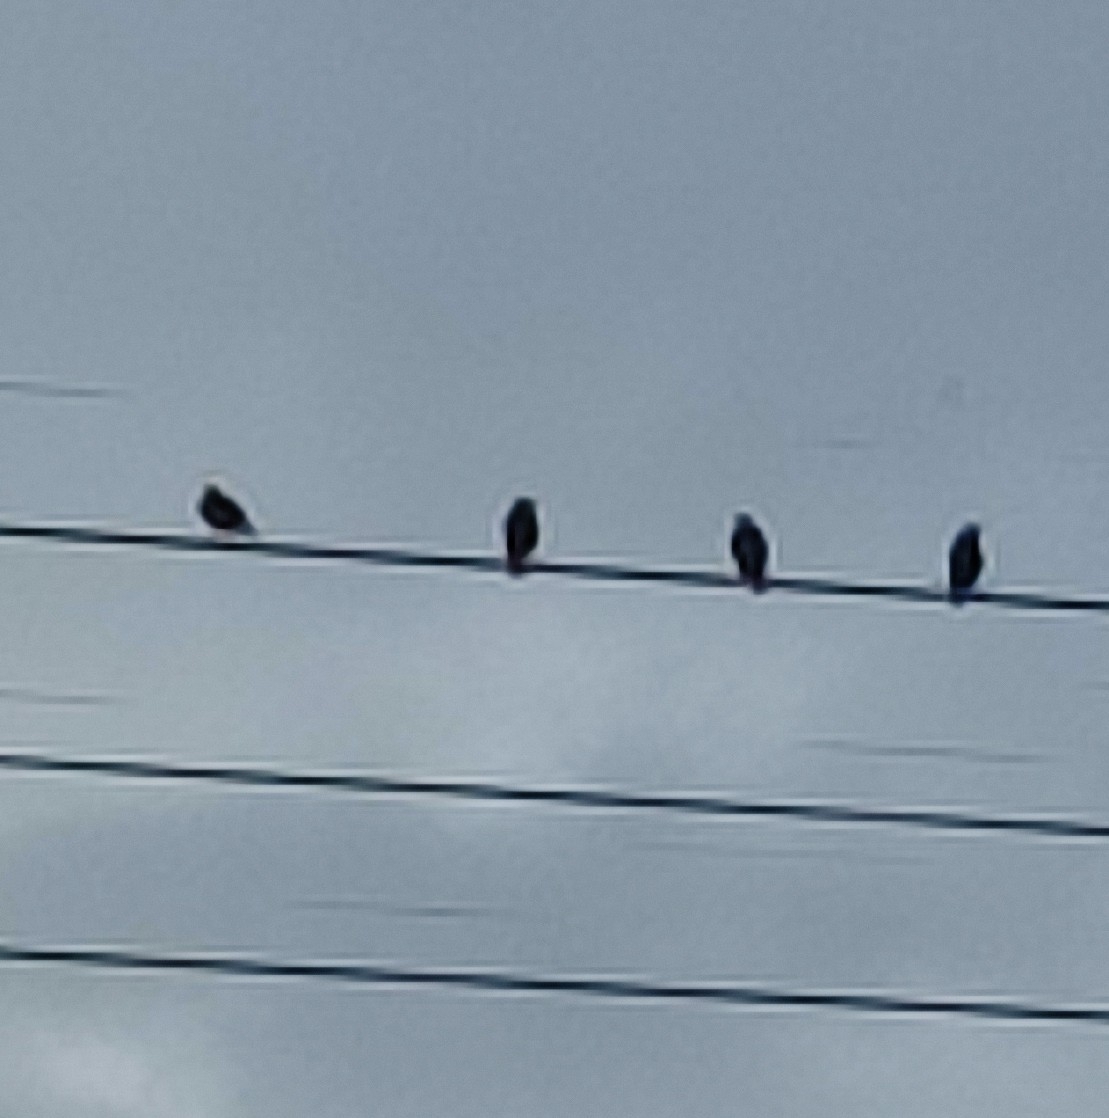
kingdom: Animalia
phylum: Chordata
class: Aves
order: Passeriformes
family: Sturnidae
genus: Sturnus
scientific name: Sturnus vulgaris
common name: Common starling
